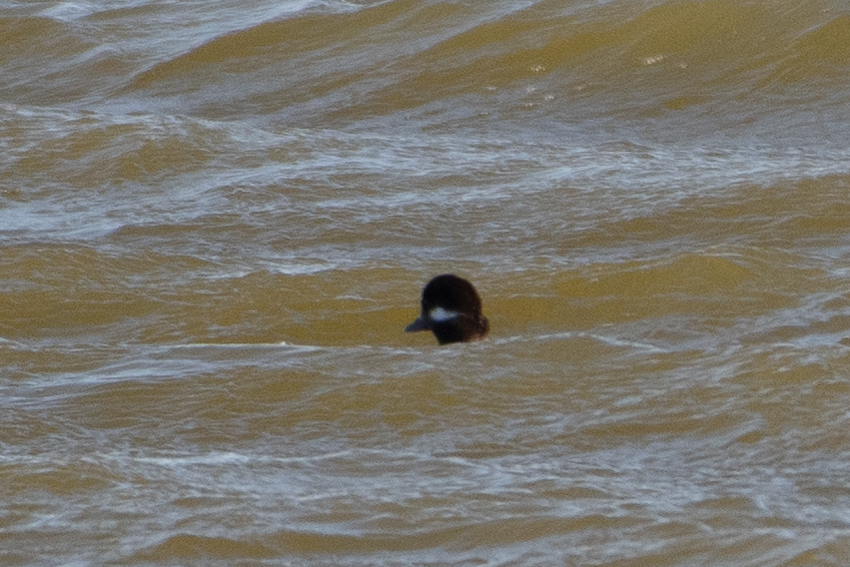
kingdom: Animalia
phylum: Chordata
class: Aves
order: Anseriformes
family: Anatidae
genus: Bucephala
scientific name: Bucephala albeola
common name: Bufflehead
